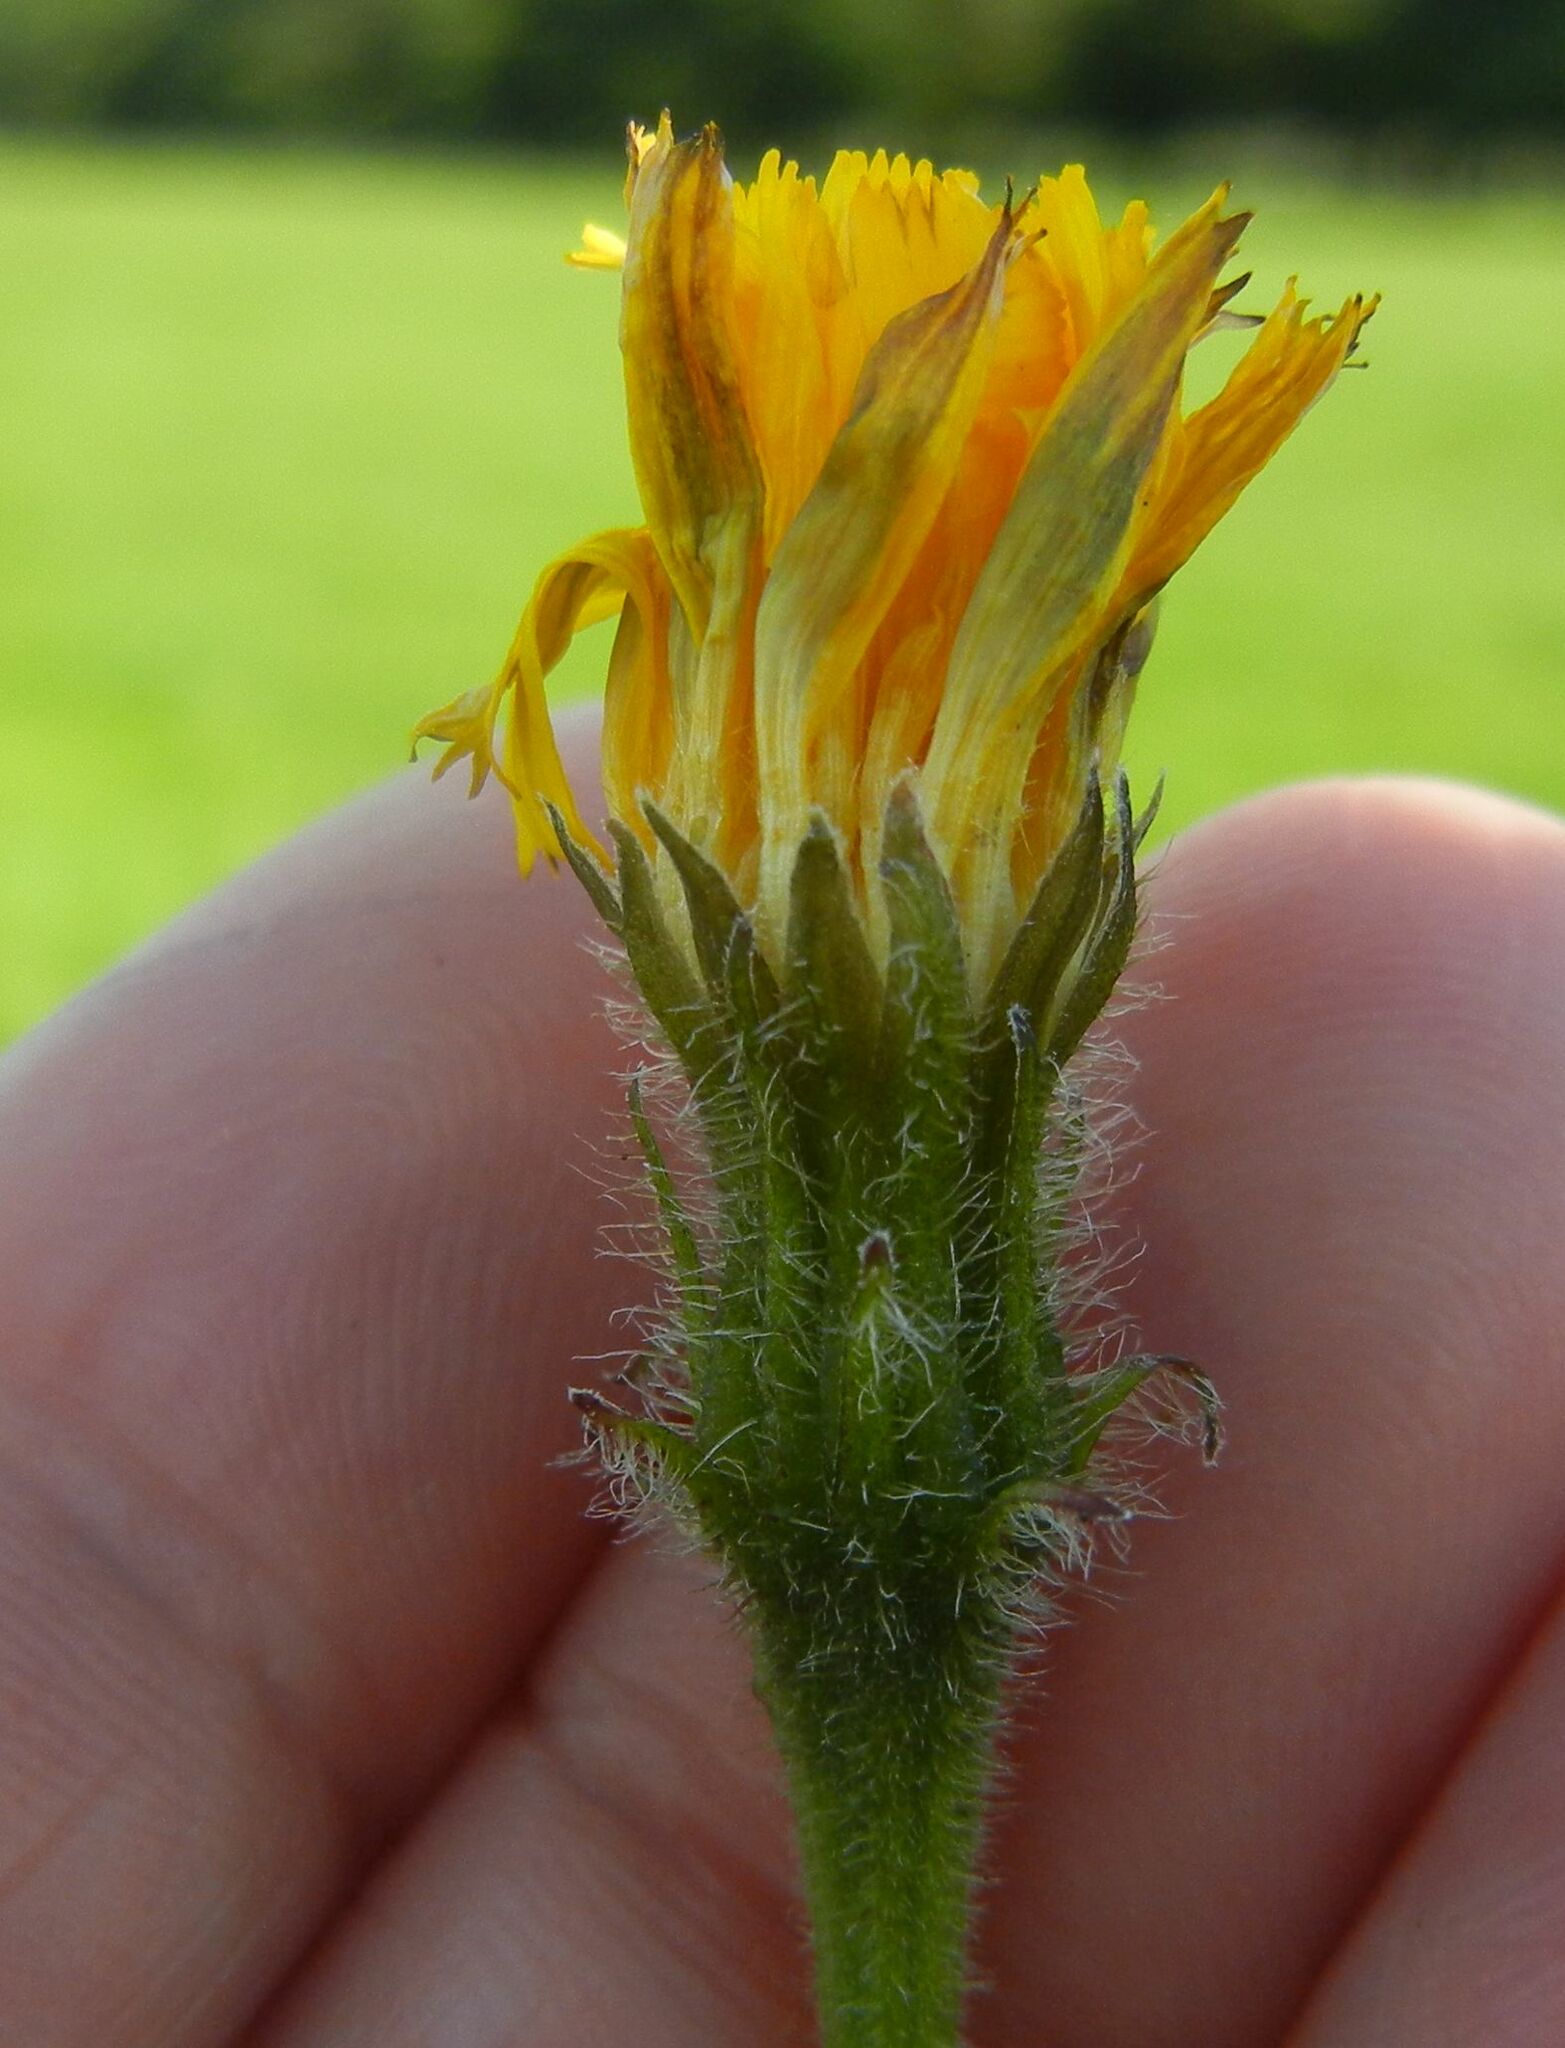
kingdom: Plantae
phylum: Tracheophyta
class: Magnoliopsida
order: Asterales
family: Asteraceae
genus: Leontodon
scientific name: Leontodon hispidus
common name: Rough hawkbit
